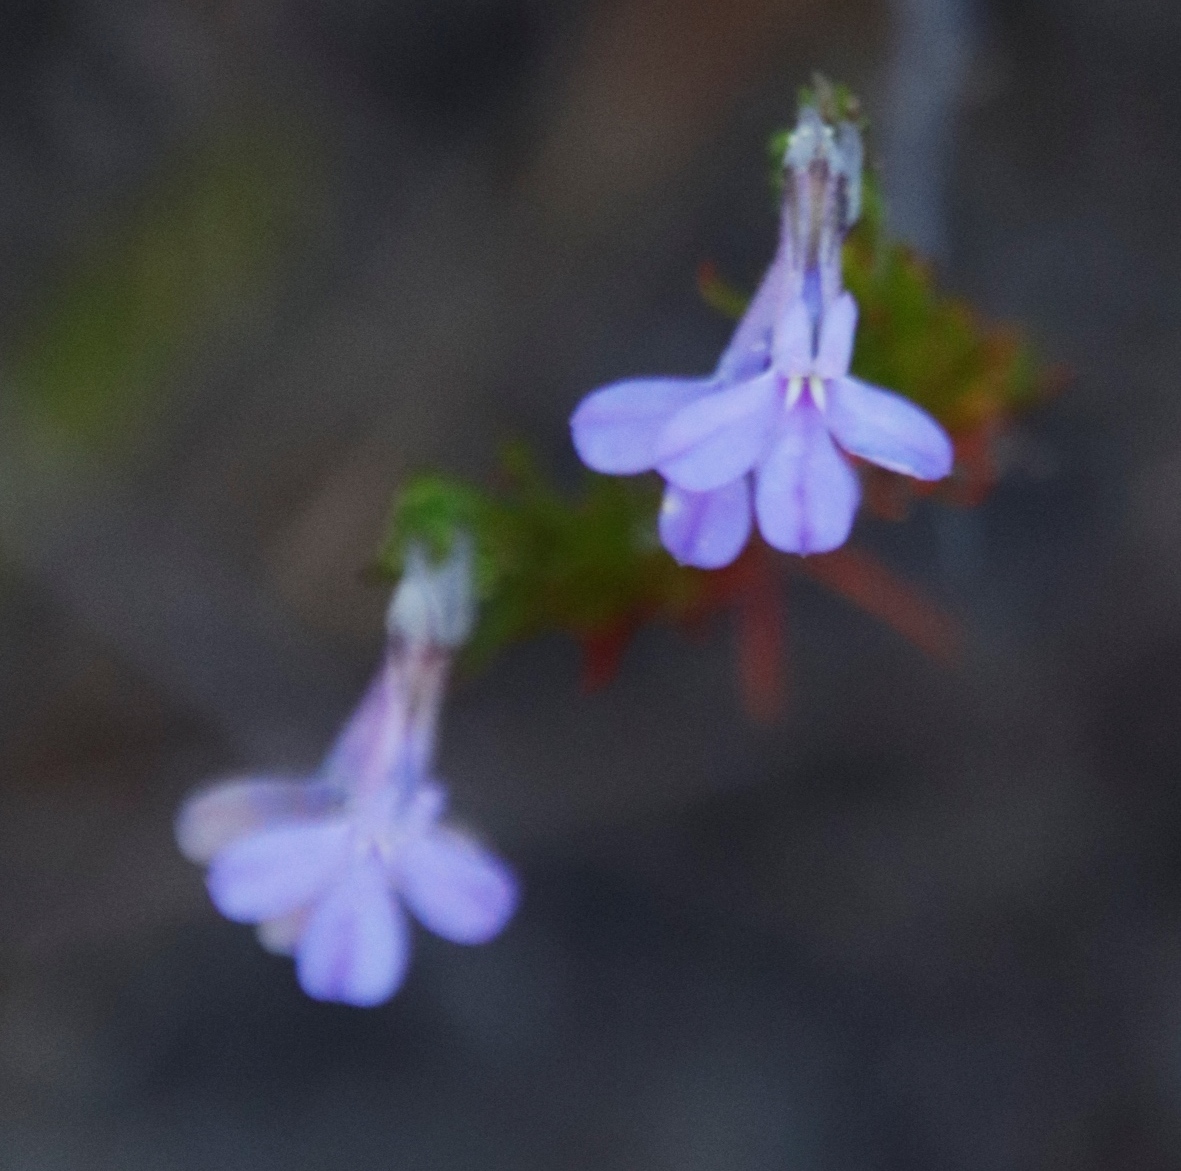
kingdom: Plantae
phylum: Tracheophyta
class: Magnoliopsida
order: Asterales
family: Campanulaceae
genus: Lobelia
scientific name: Lobelia pinifolia
